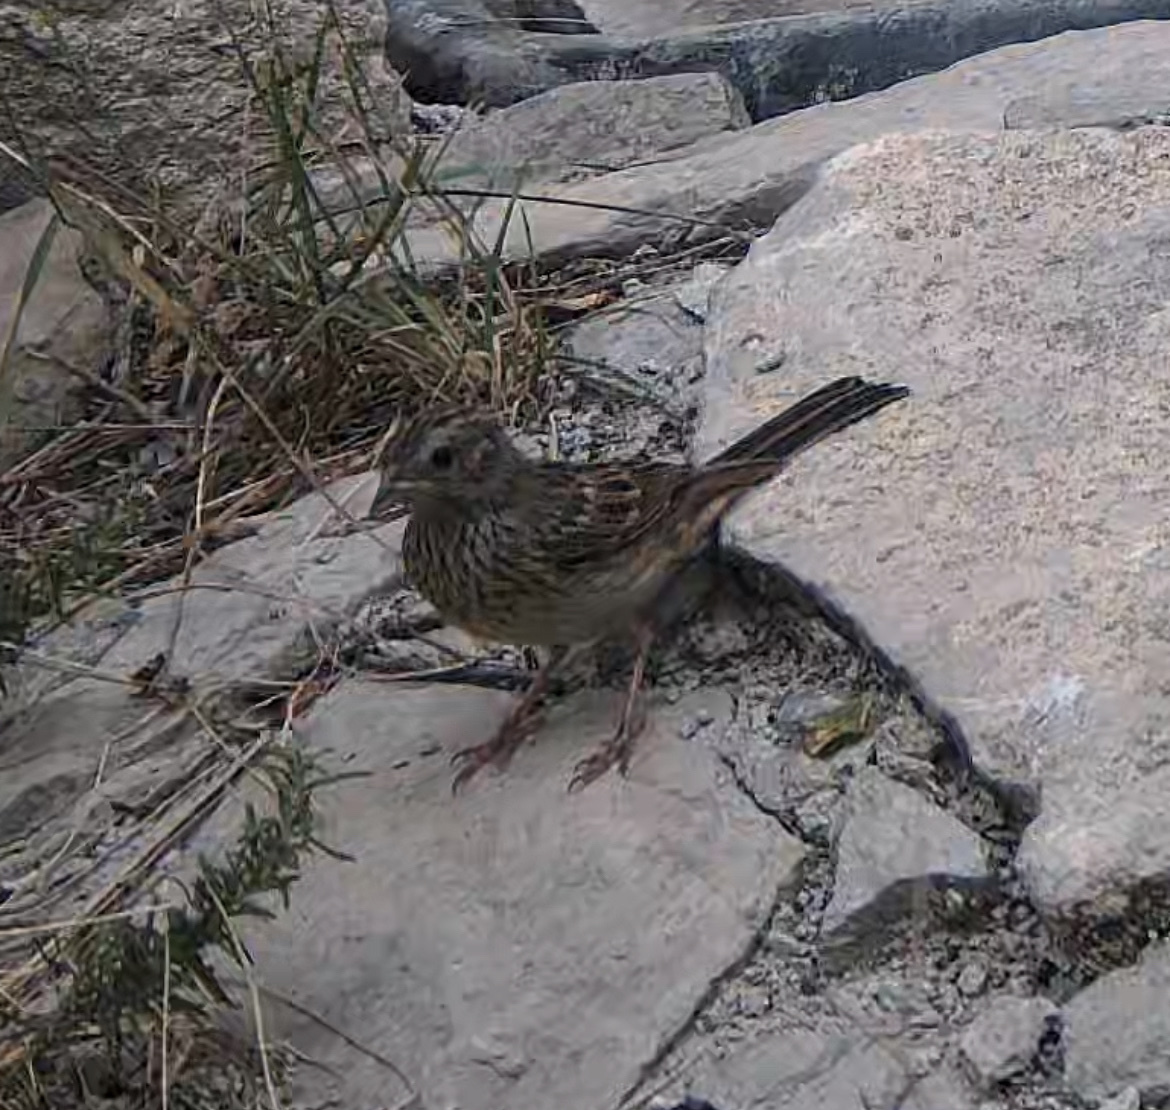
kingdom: Animalia
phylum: Chordata
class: Aves
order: Passeriformes
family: Emberizidae
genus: Emberiza
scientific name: Emberiza cirlus
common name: Cirl bunting
